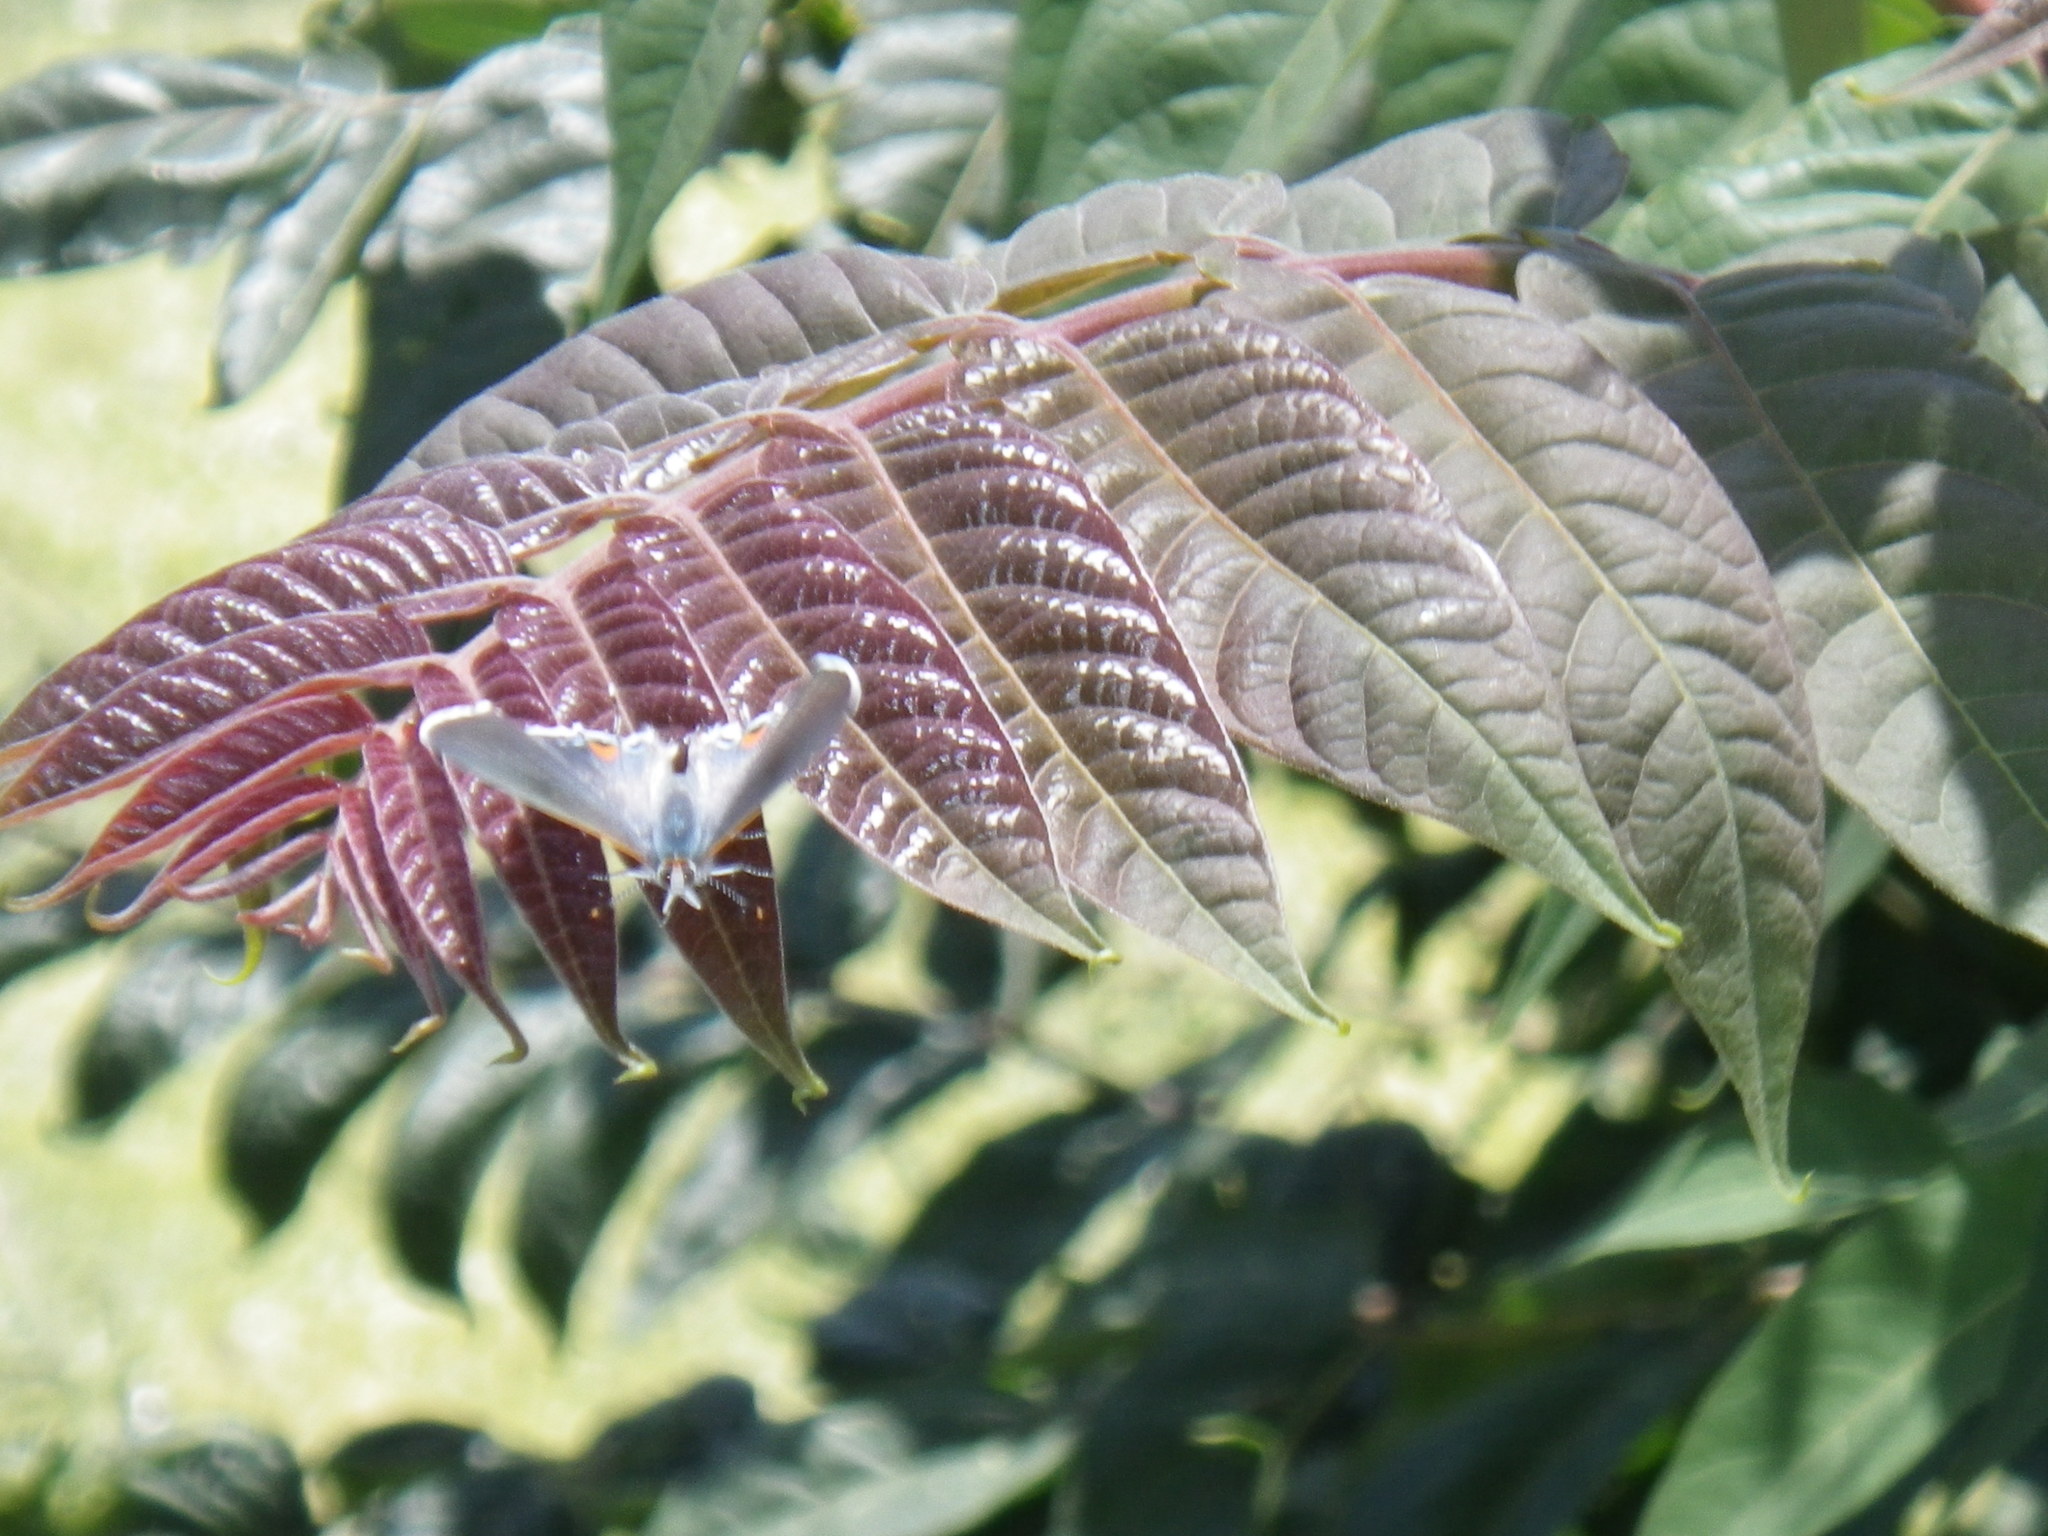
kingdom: Animalia
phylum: Arthropoda
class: Insecta
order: Lepidoptera
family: Lycaenidae
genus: Strymon
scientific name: Strymon melinus
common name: Gray hairstreak
